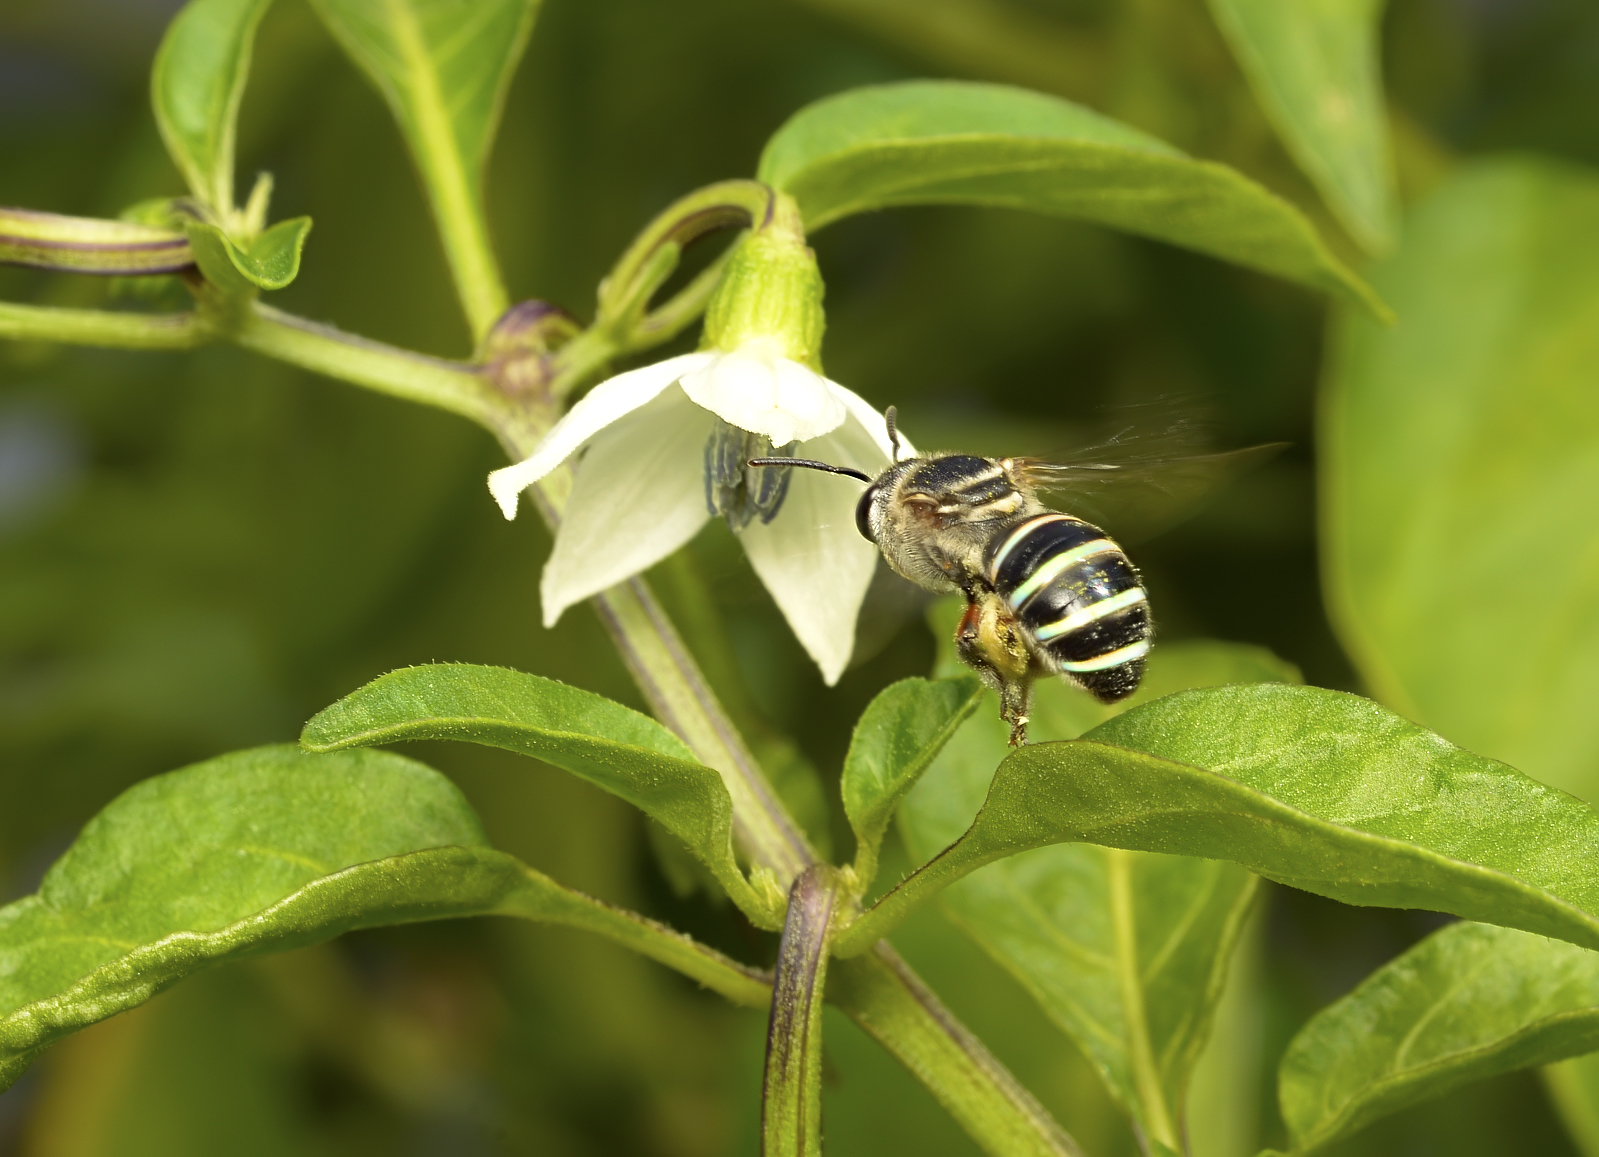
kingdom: Animalia
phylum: Arthropoda
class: Insecta
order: Hymenoptera
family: Halictidae
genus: Nomia
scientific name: Nomia westwoodi
